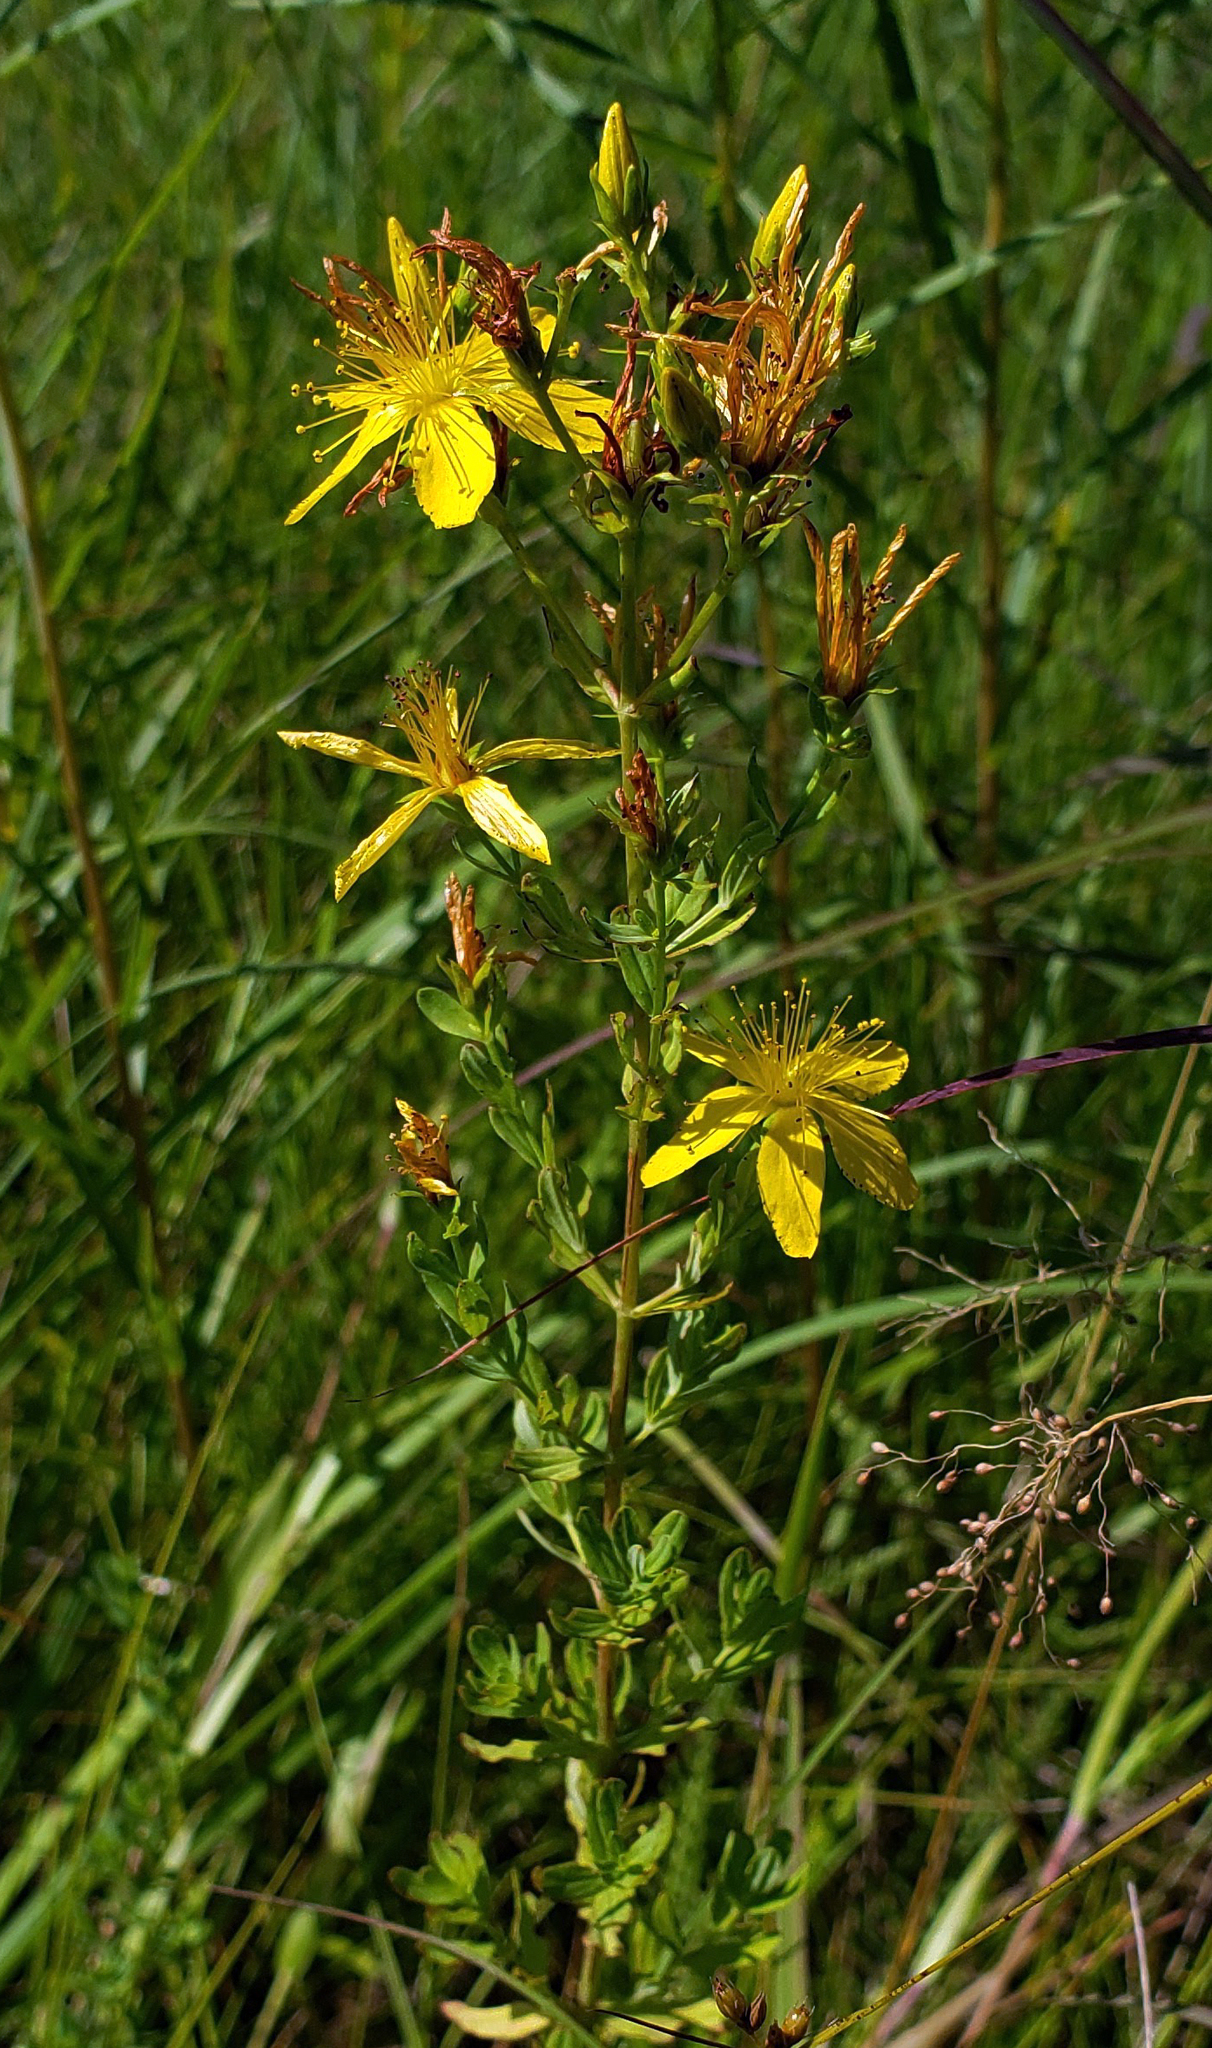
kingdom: Plantae
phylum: Tracheophyta
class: Magnoliopsida
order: Malpighiales
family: Hypericaceae
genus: Hypericum
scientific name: Hypericum perforatum
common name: Common st. johnswort
